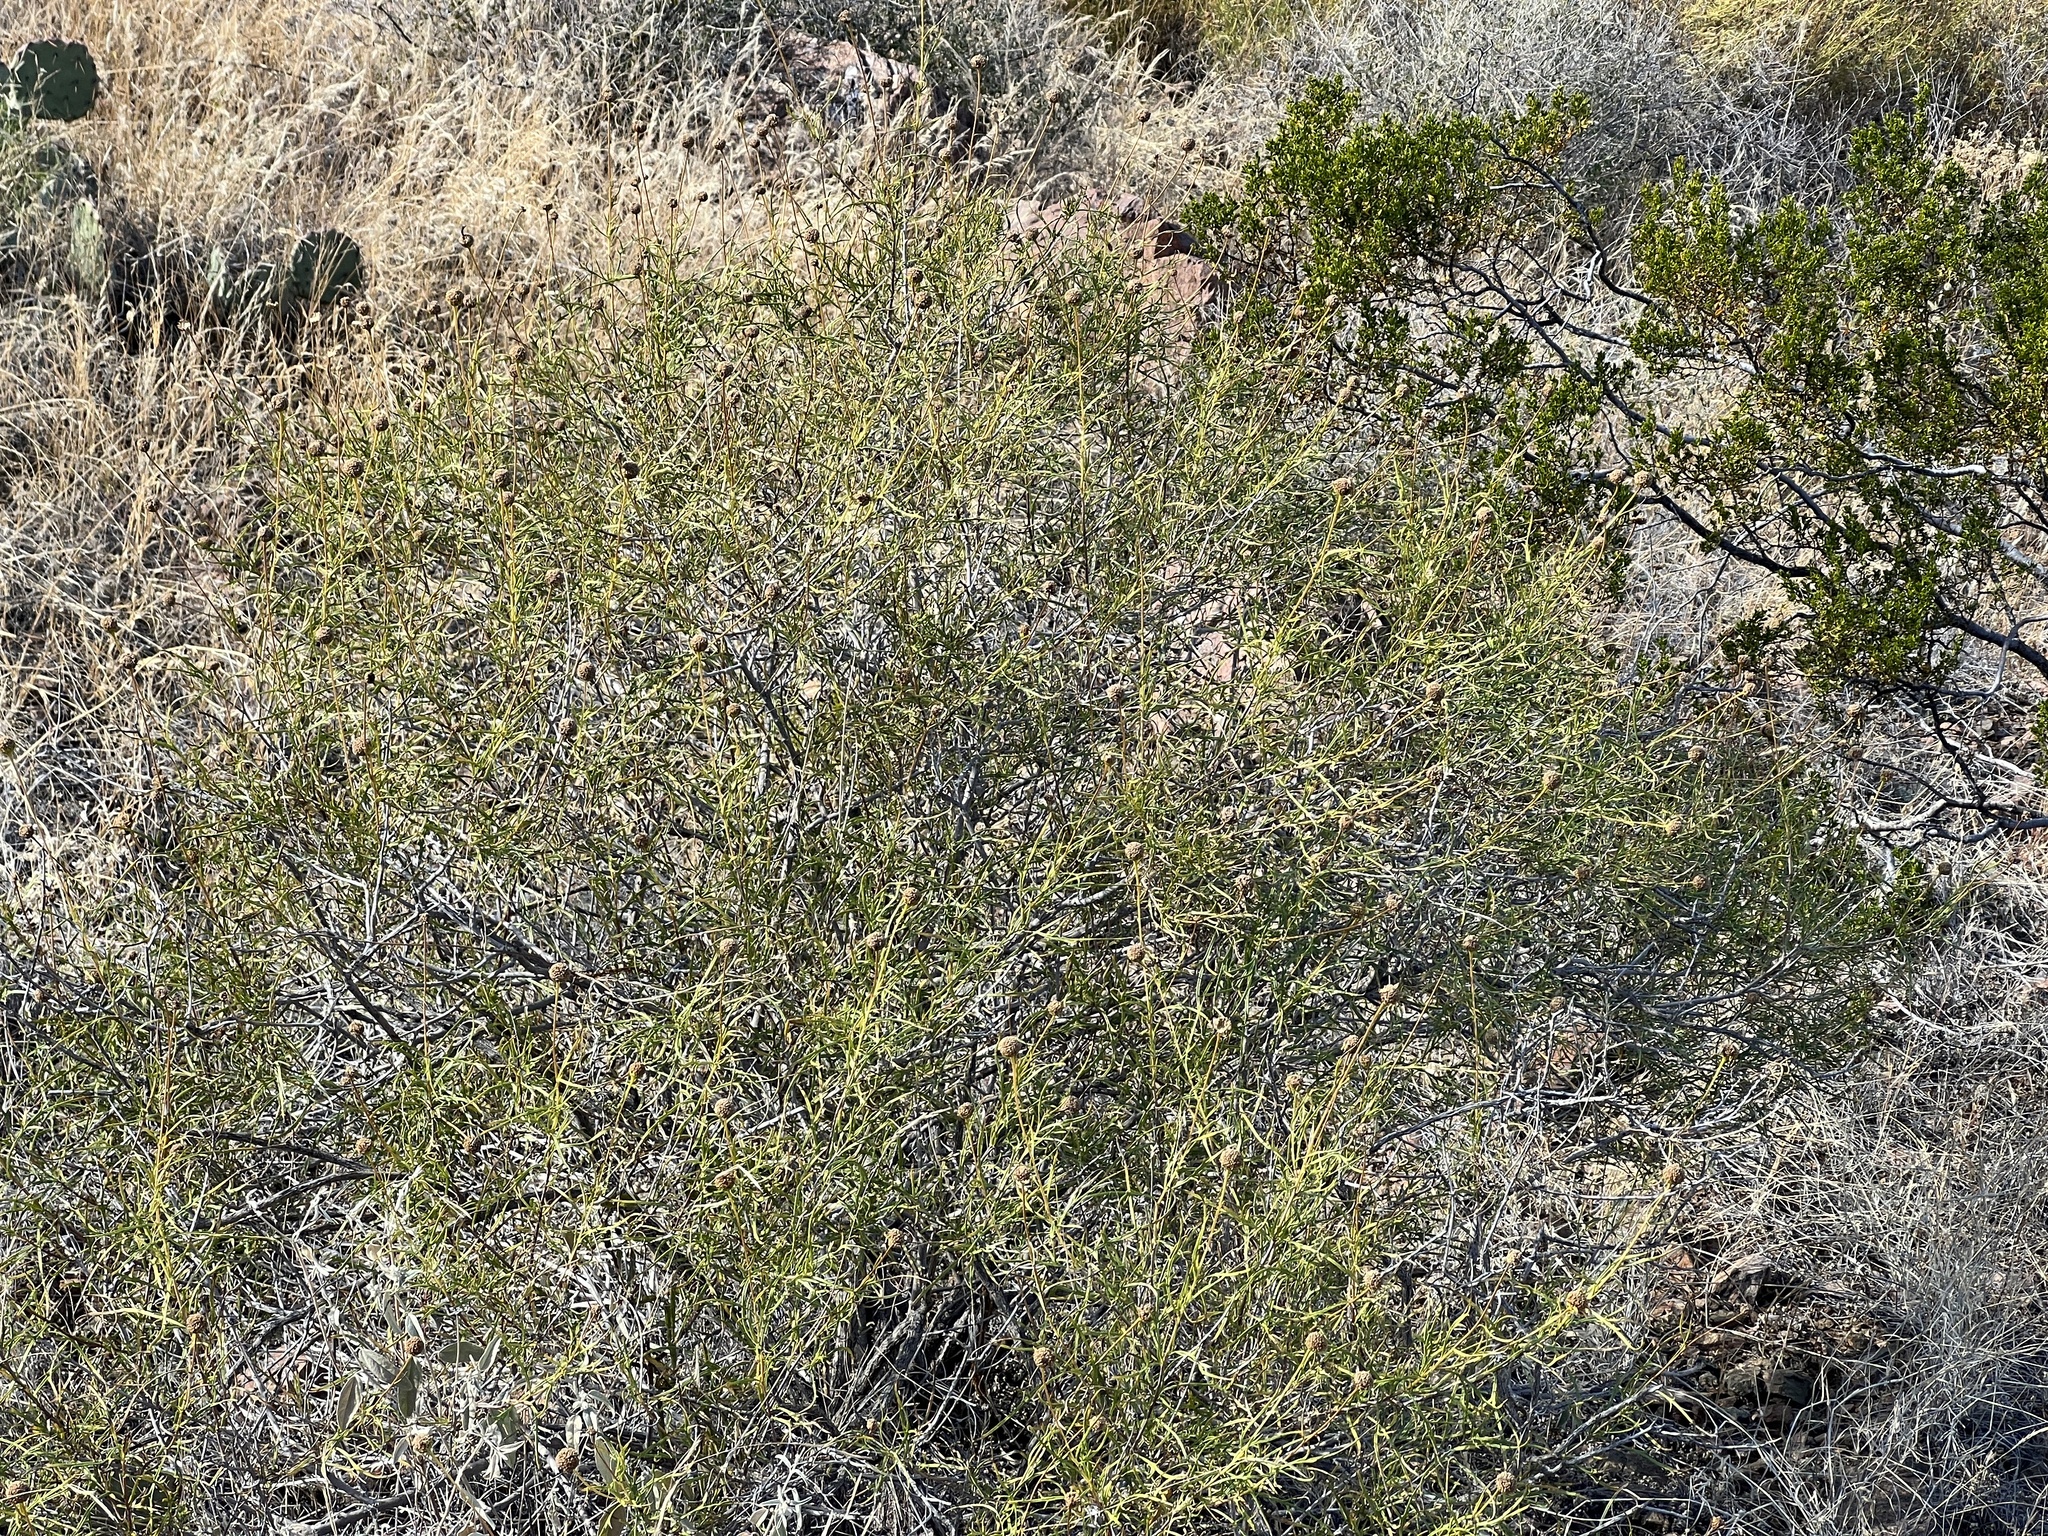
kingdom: Plantae
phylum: Tracheophyta
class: Magnoliopsida
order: Asterales
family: Asteraceae
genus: Sidneya
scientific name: Sidneya tenuifolia
